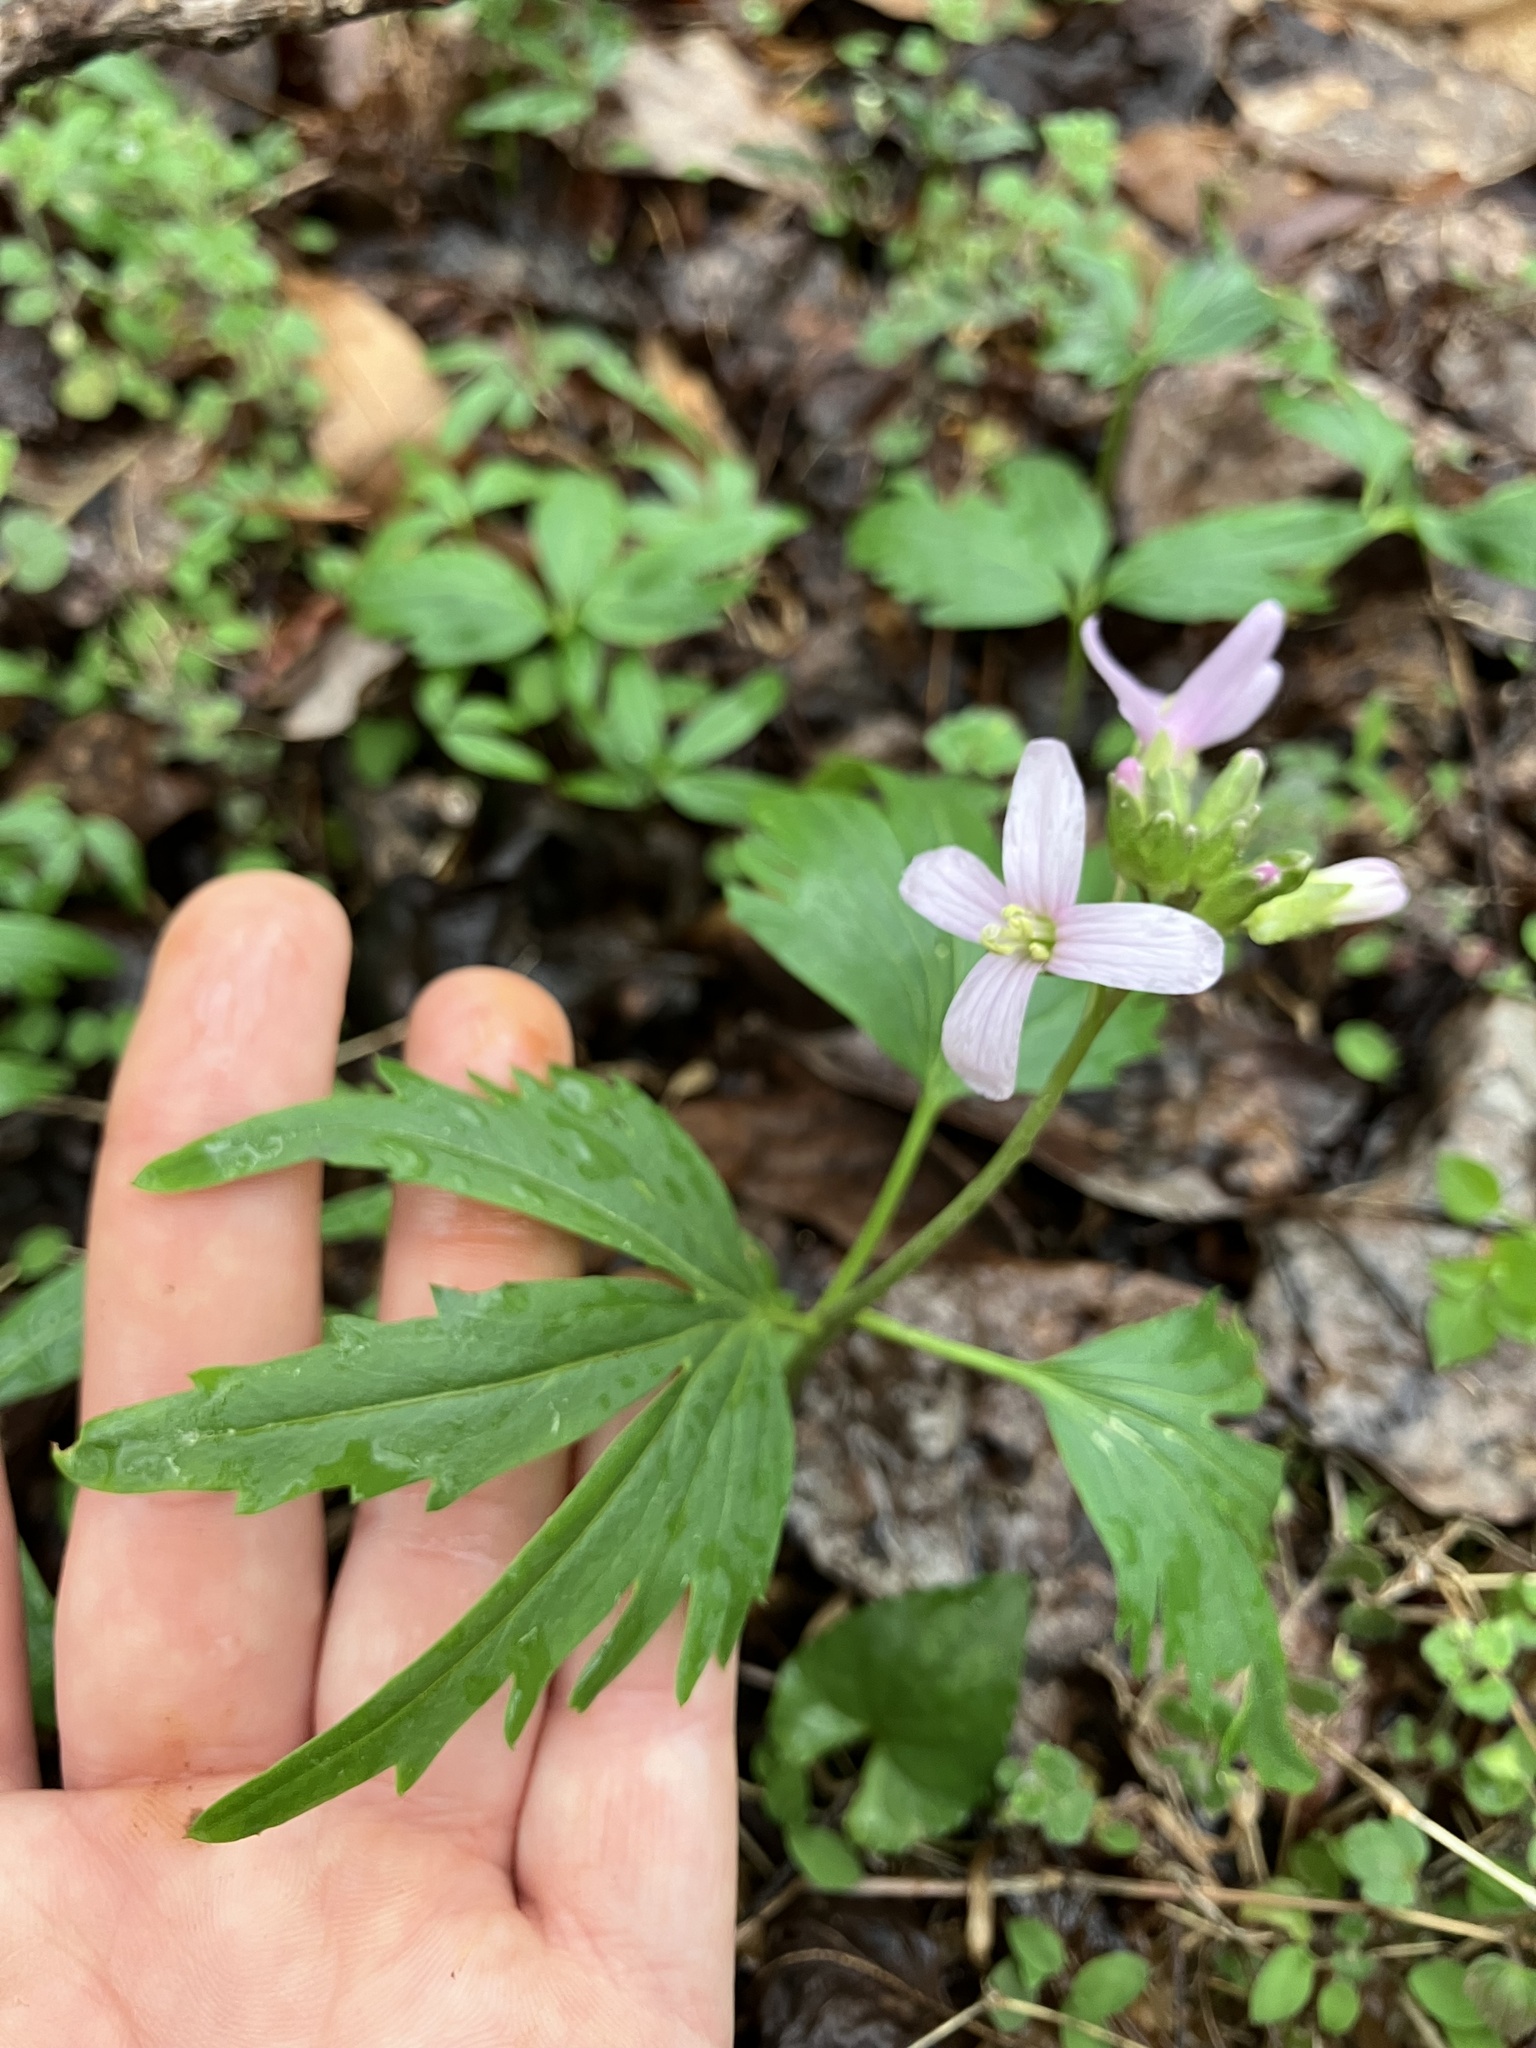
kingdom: Plantae
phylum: Tracheophyta
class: Magnoliopsida
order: Brassicales
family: Brassicaceae
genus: Cardamine
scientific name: Cardamine concatenata
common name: Cut-leaf toothcup
